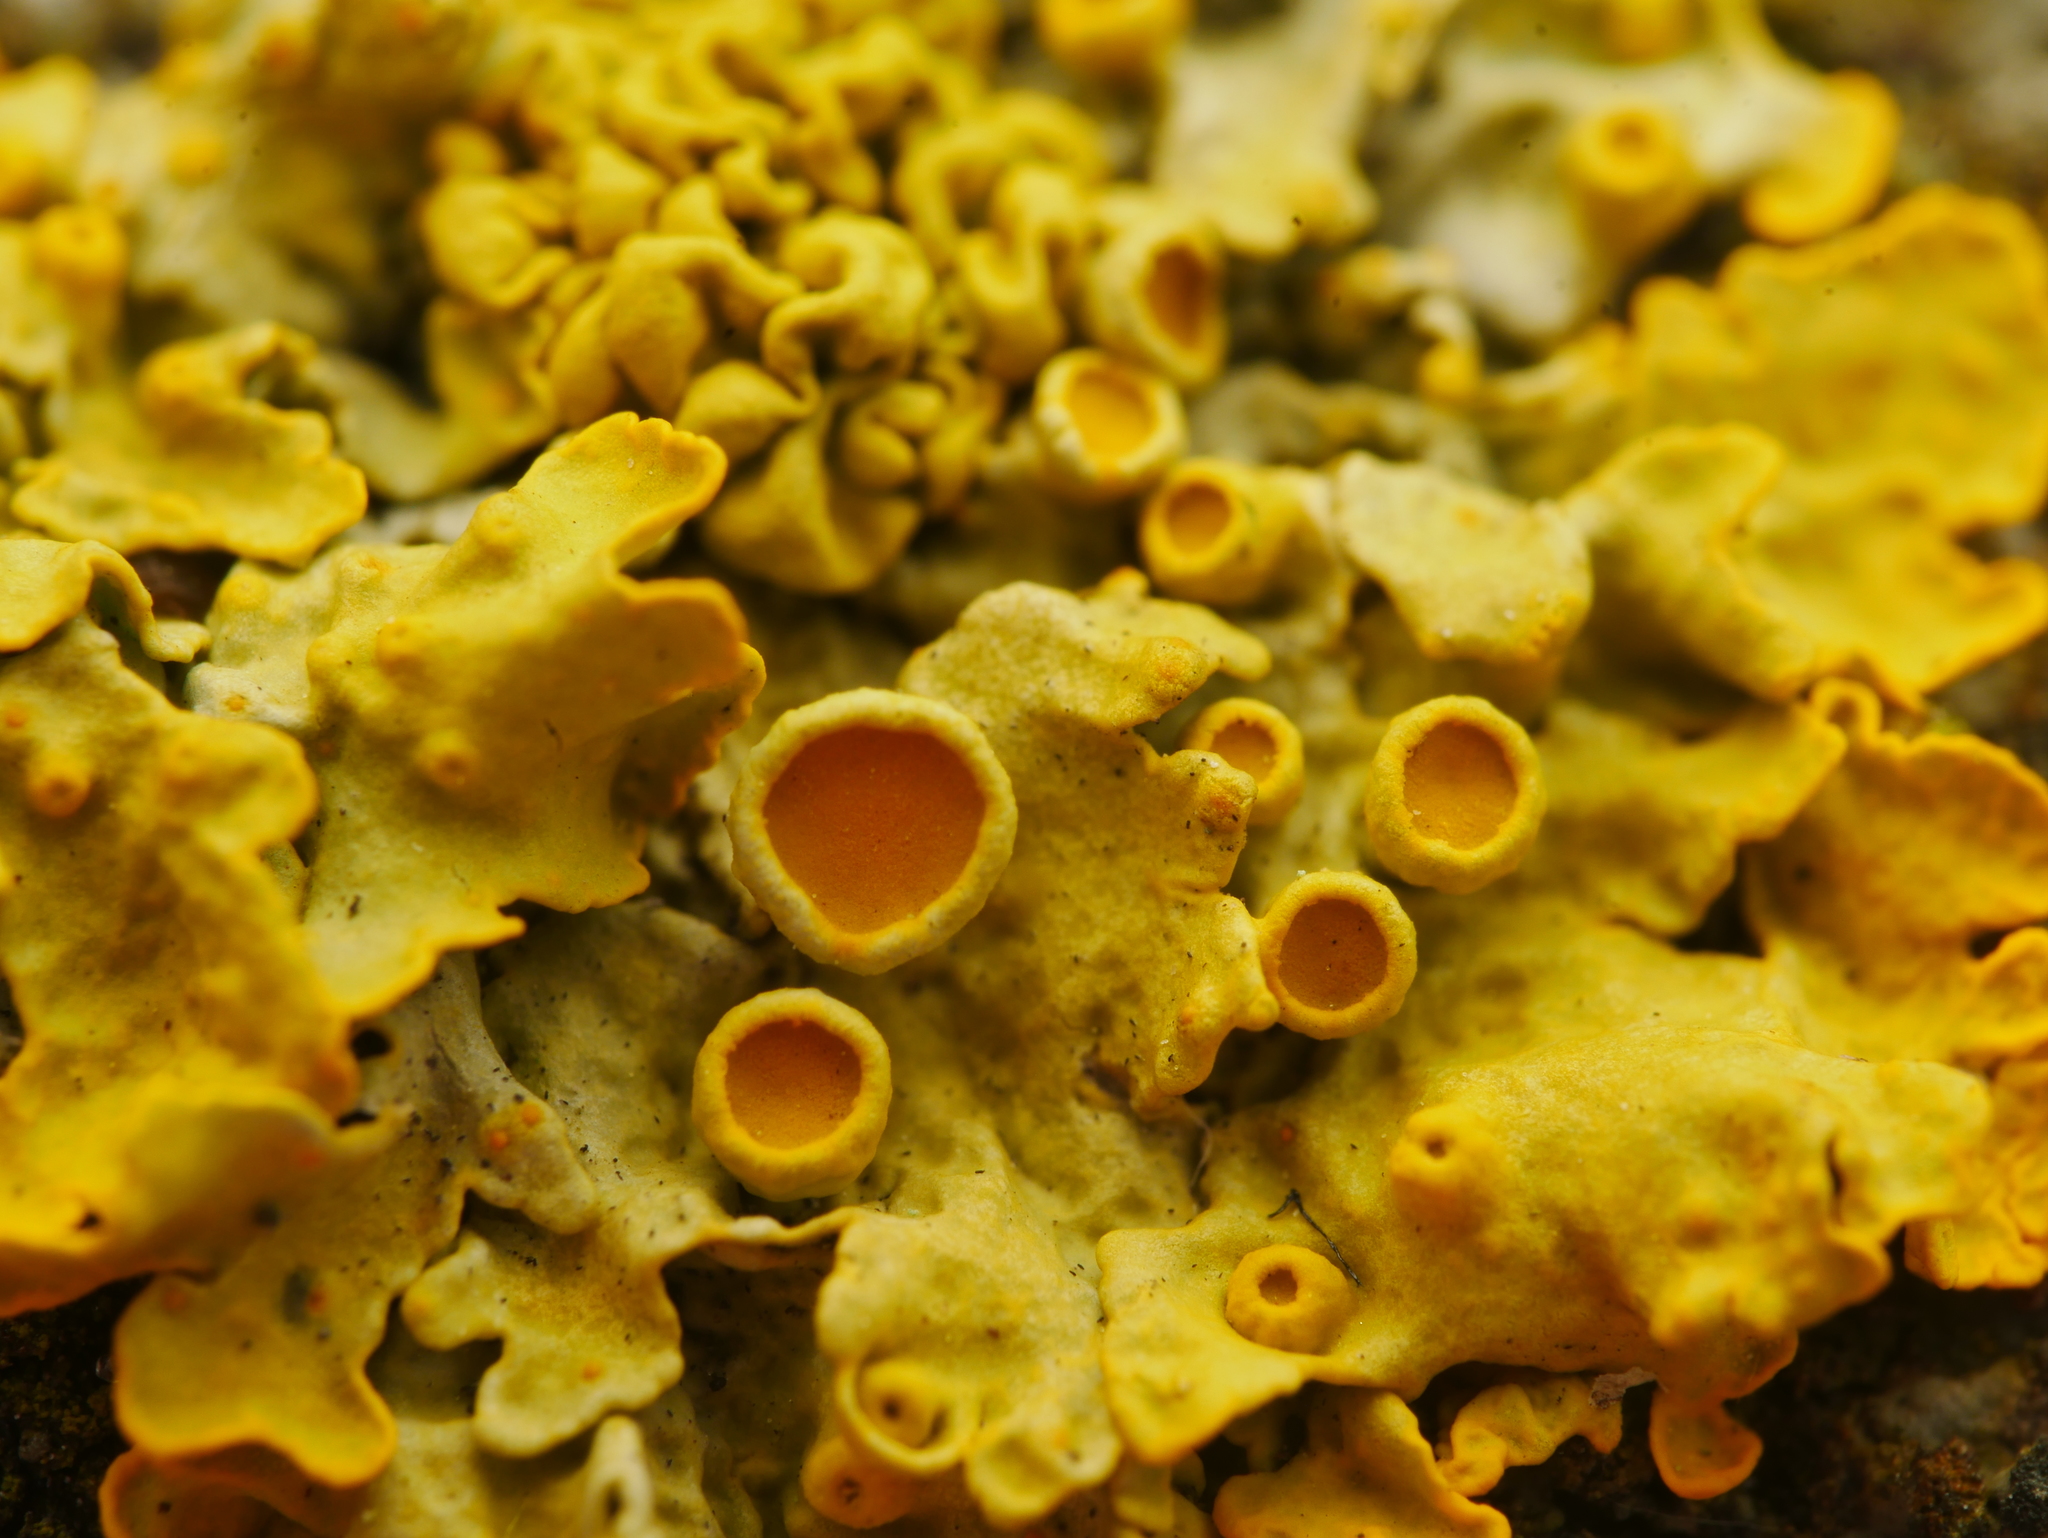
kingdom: Fungi
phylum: Ascomycota
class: Lecanoromycetes
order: Teloschistales
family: Teloschistaceae
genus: Xanthoria
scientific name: Xanthoria parietina
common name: Common orange lichen
